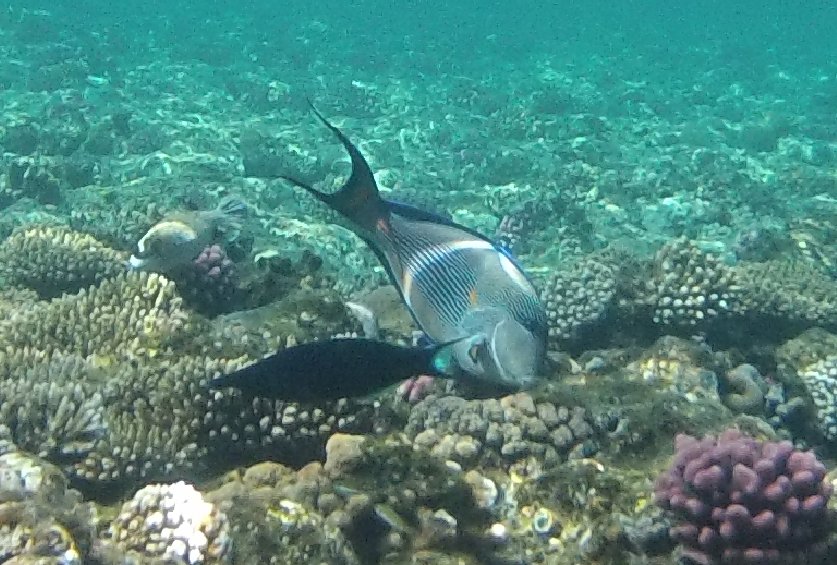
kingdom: Animalia
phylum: Chordata
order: Perciformes
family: Acanthuridae
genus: Acanthurus
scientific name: Acanthurus sohal
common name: Red sea surgeonfish
